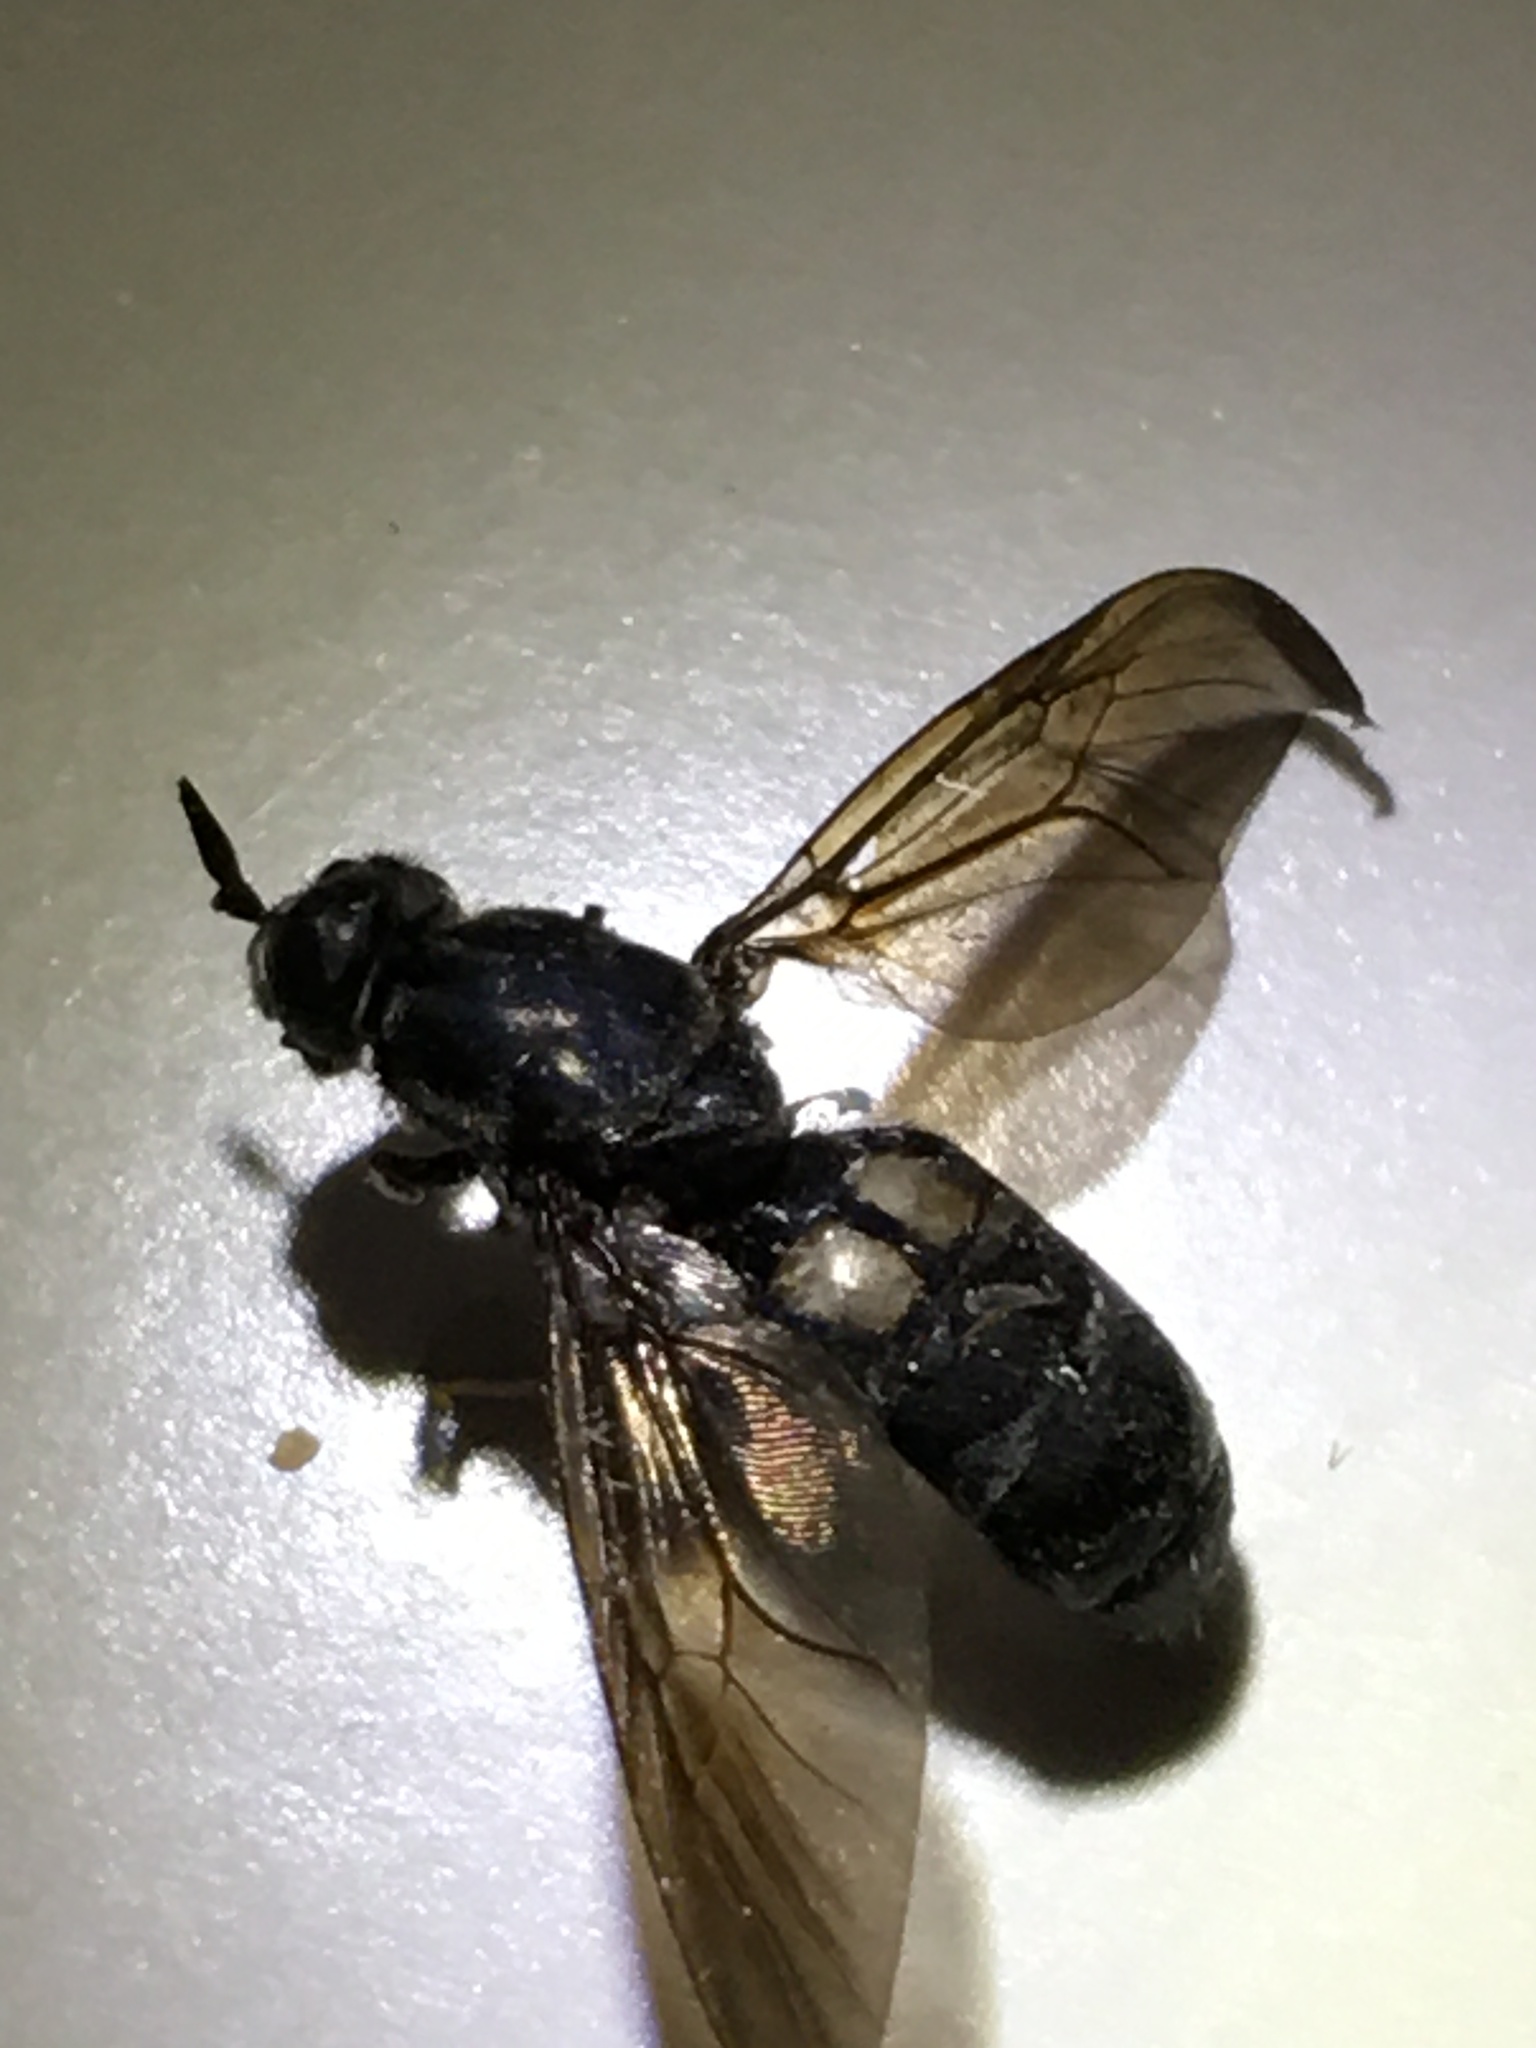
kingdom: Animalia
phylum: Arthropoda
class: Insecta
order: Diptera
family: Stratiomyidae
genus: Hermetia
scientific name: Hermetia illucens
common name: Black soldier fly
